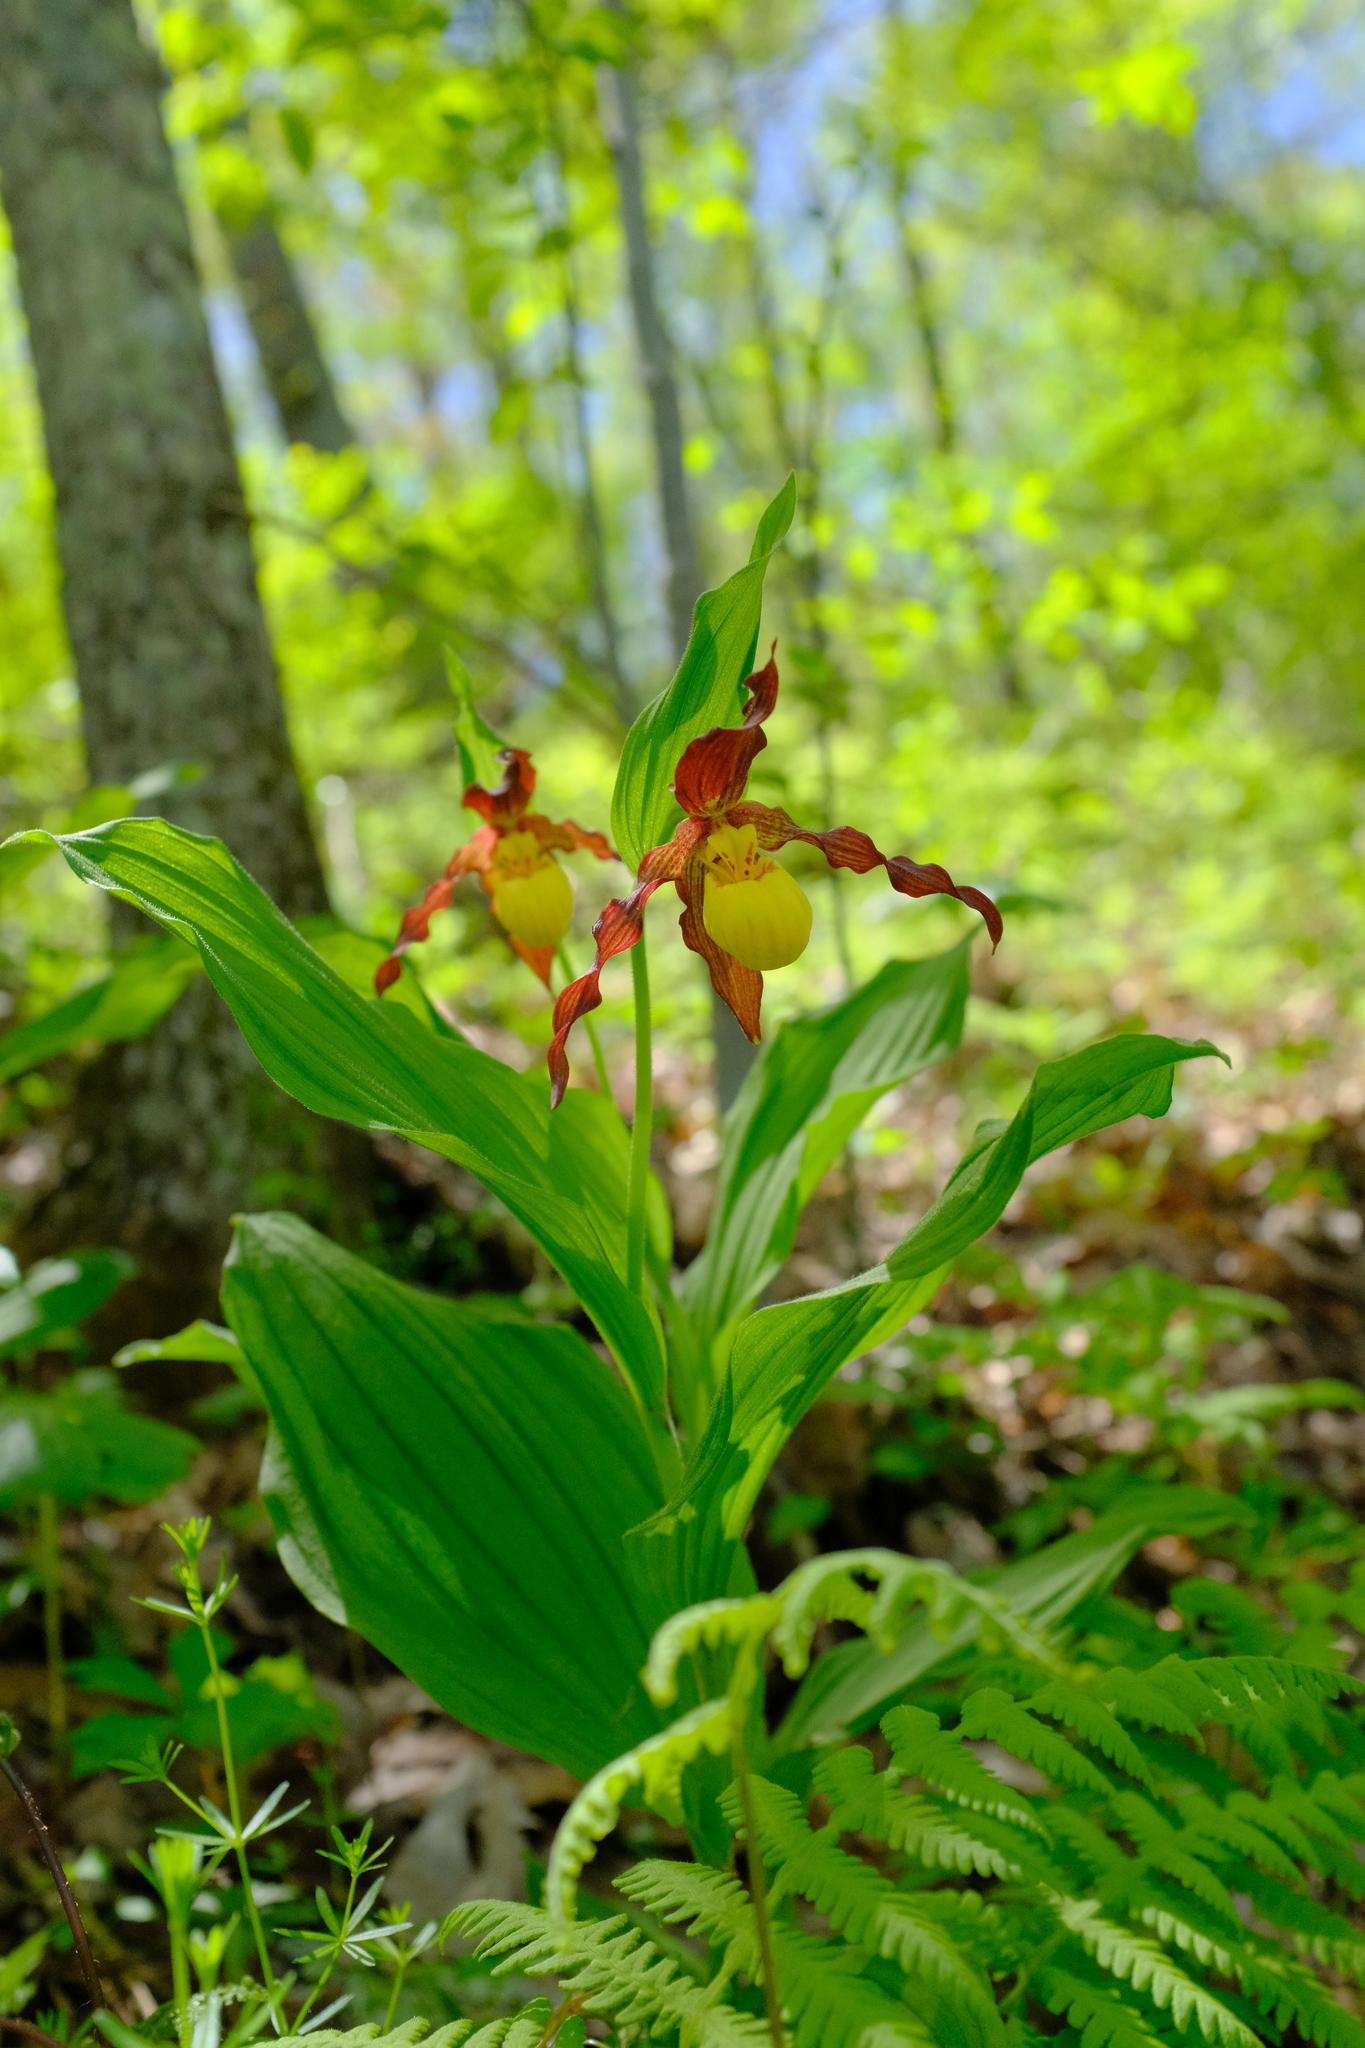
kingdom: Plantae
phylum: Tracheophyta
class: Liliopsida
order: Asparagales
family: Orchidaceae
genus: Cypripedium
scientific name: Cypripedium parviflorum
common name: American yellow lady's-slipper
